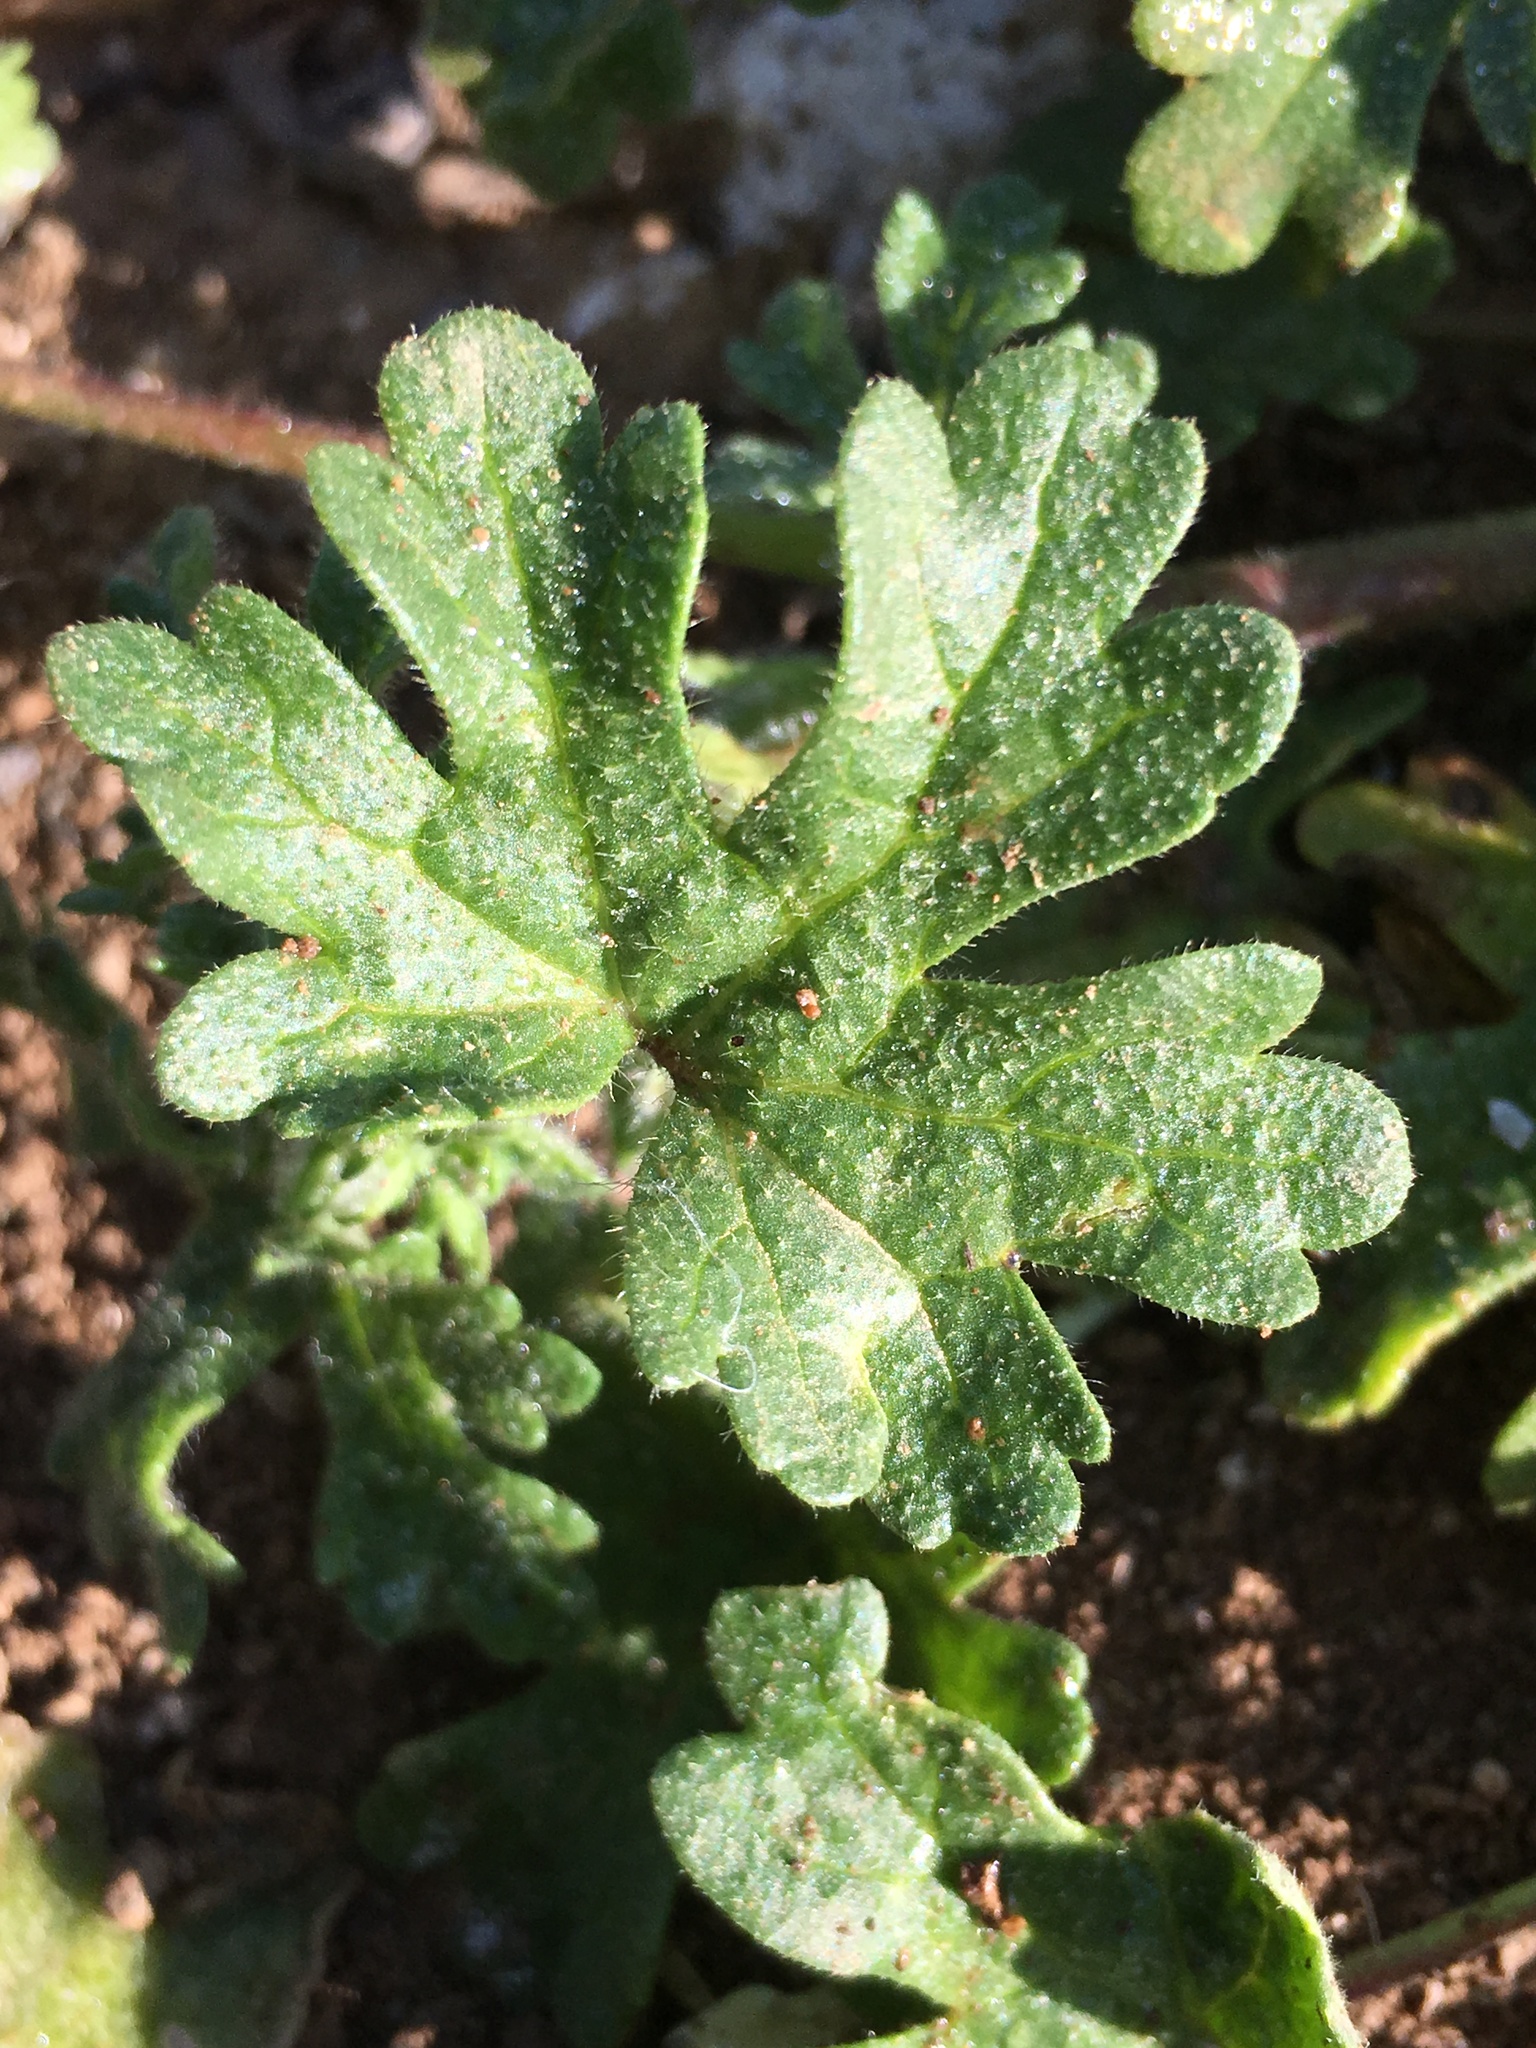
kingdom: Plantae
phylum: Tracheophyta
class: Magnoliopsida
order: Malvales
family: Malvaceae
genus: Eremalche
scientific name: Eremalche exilis
